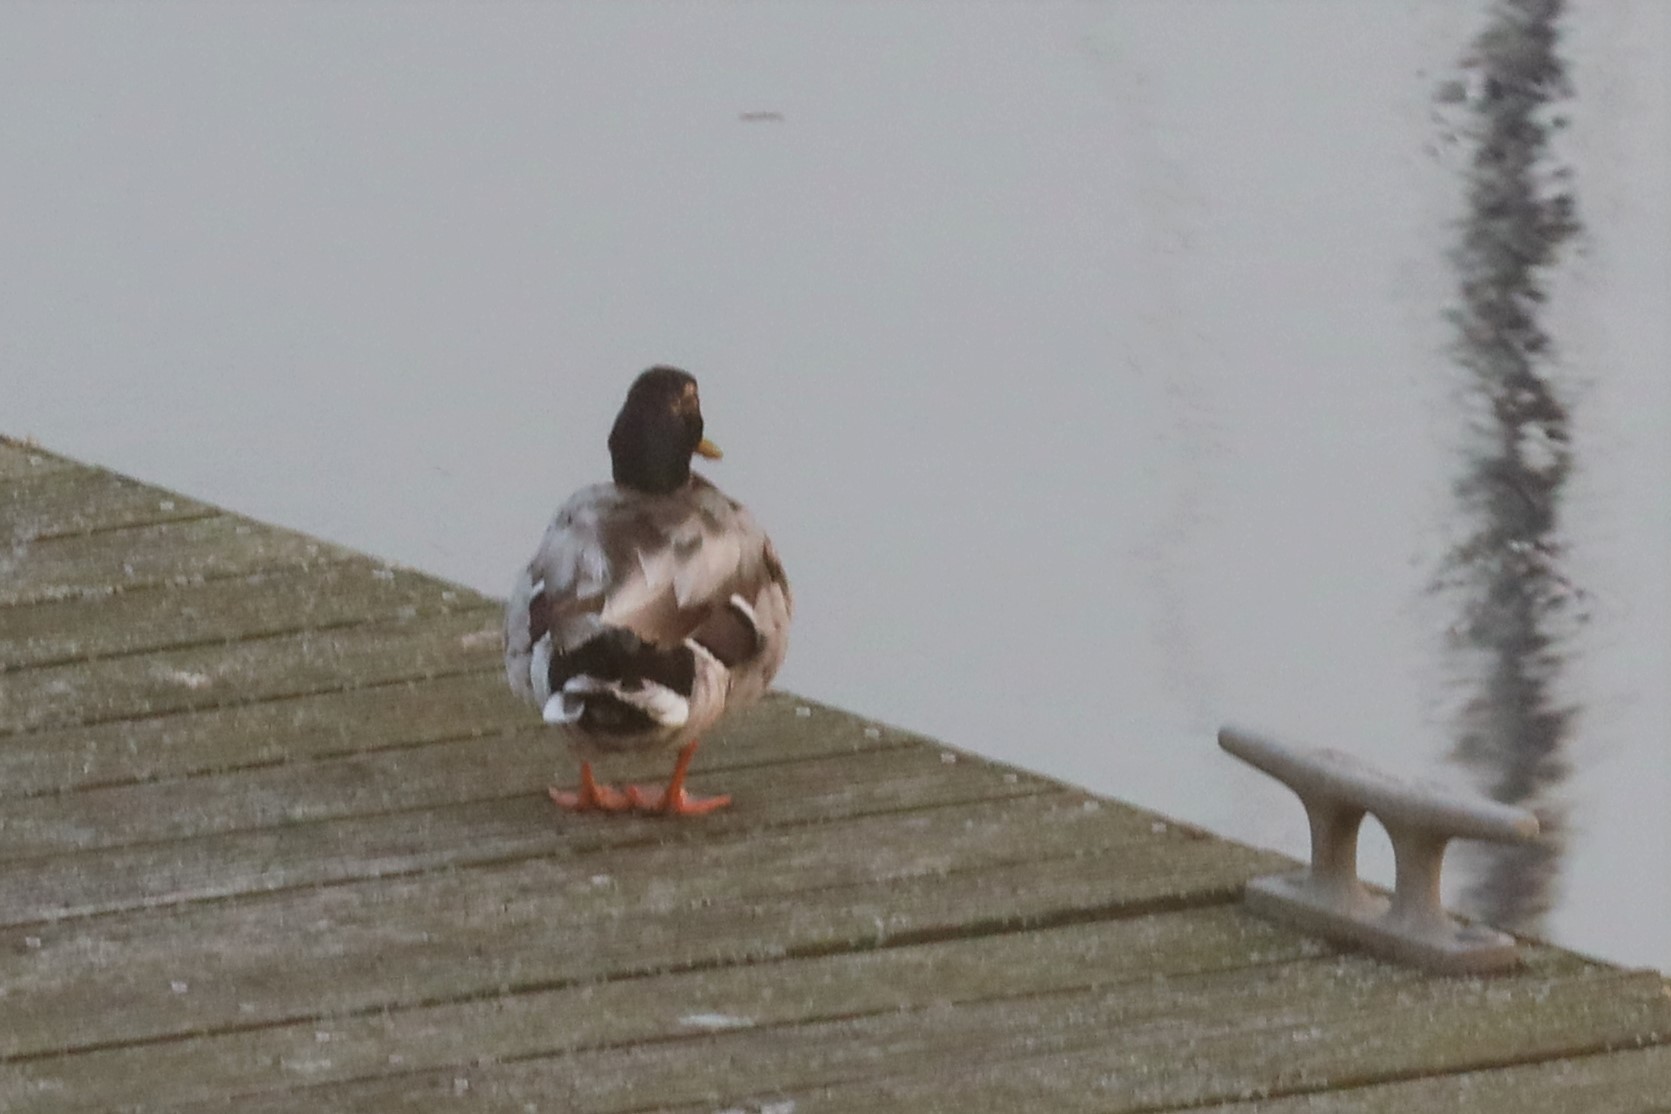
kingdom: Animalia
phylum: Chordata
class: Aves
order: Anseriformes
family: Anatidae
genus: Anas
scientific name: Anas platyrhynchos
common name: Mallard
